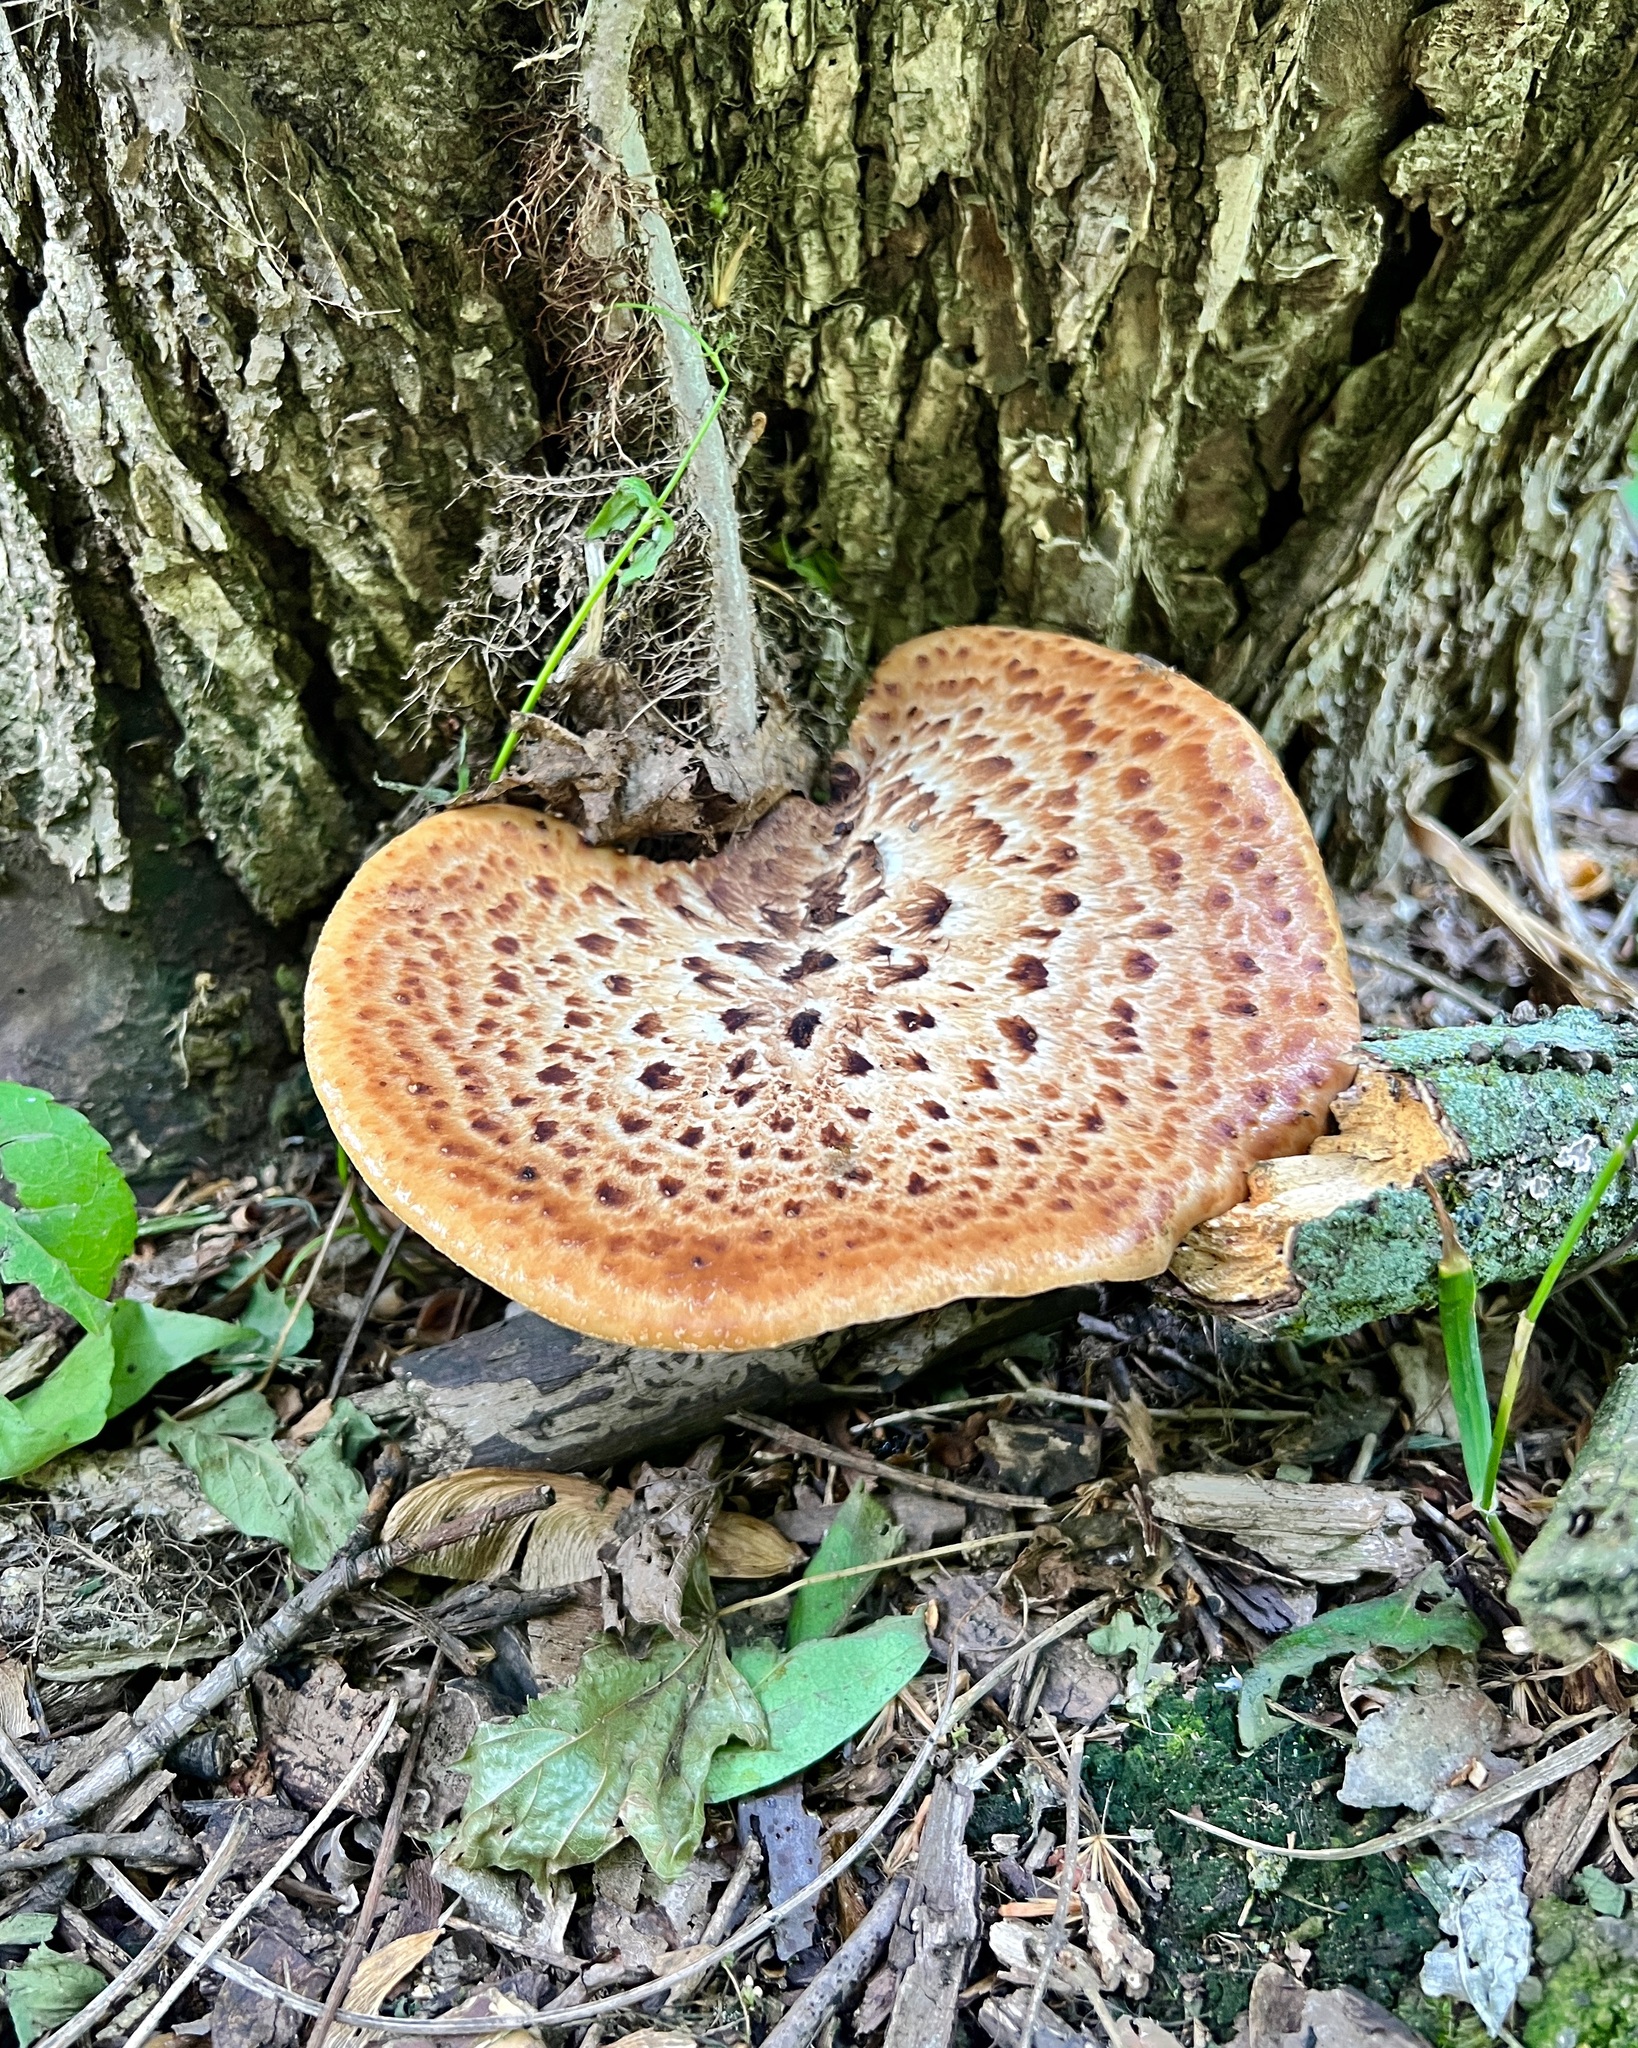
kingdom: Fungi
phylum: Basidiomycota
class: Agaricomycetes
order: Polyporales
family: Polyporaceae
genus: Cerioporus
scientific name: Cerioporus squamosus
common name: Dryad's saddle
